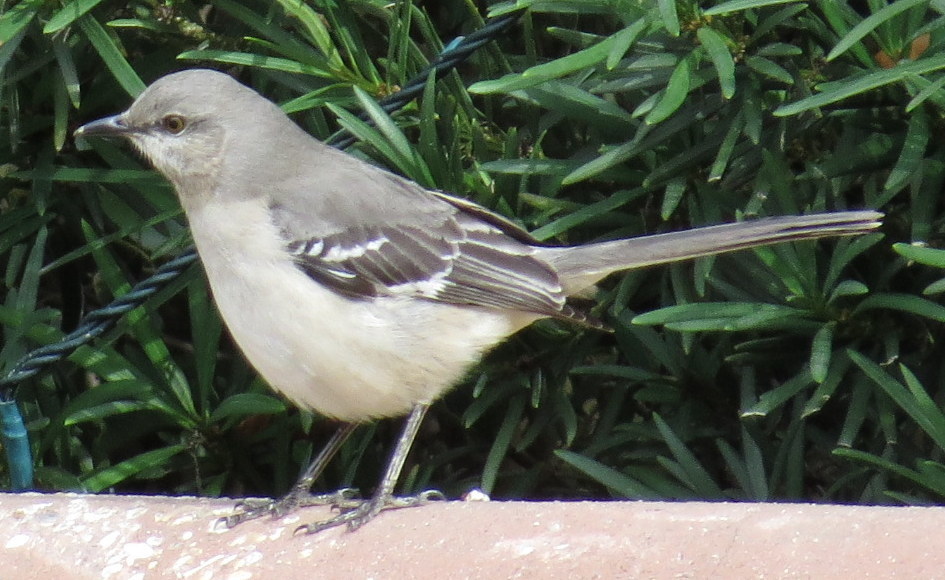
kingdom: Animalia
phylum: Chordata
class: Aves
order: Passeriformes
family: Mimidae
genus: Mimus
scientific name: Mimus polyglottos
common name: Northern mockingbird
